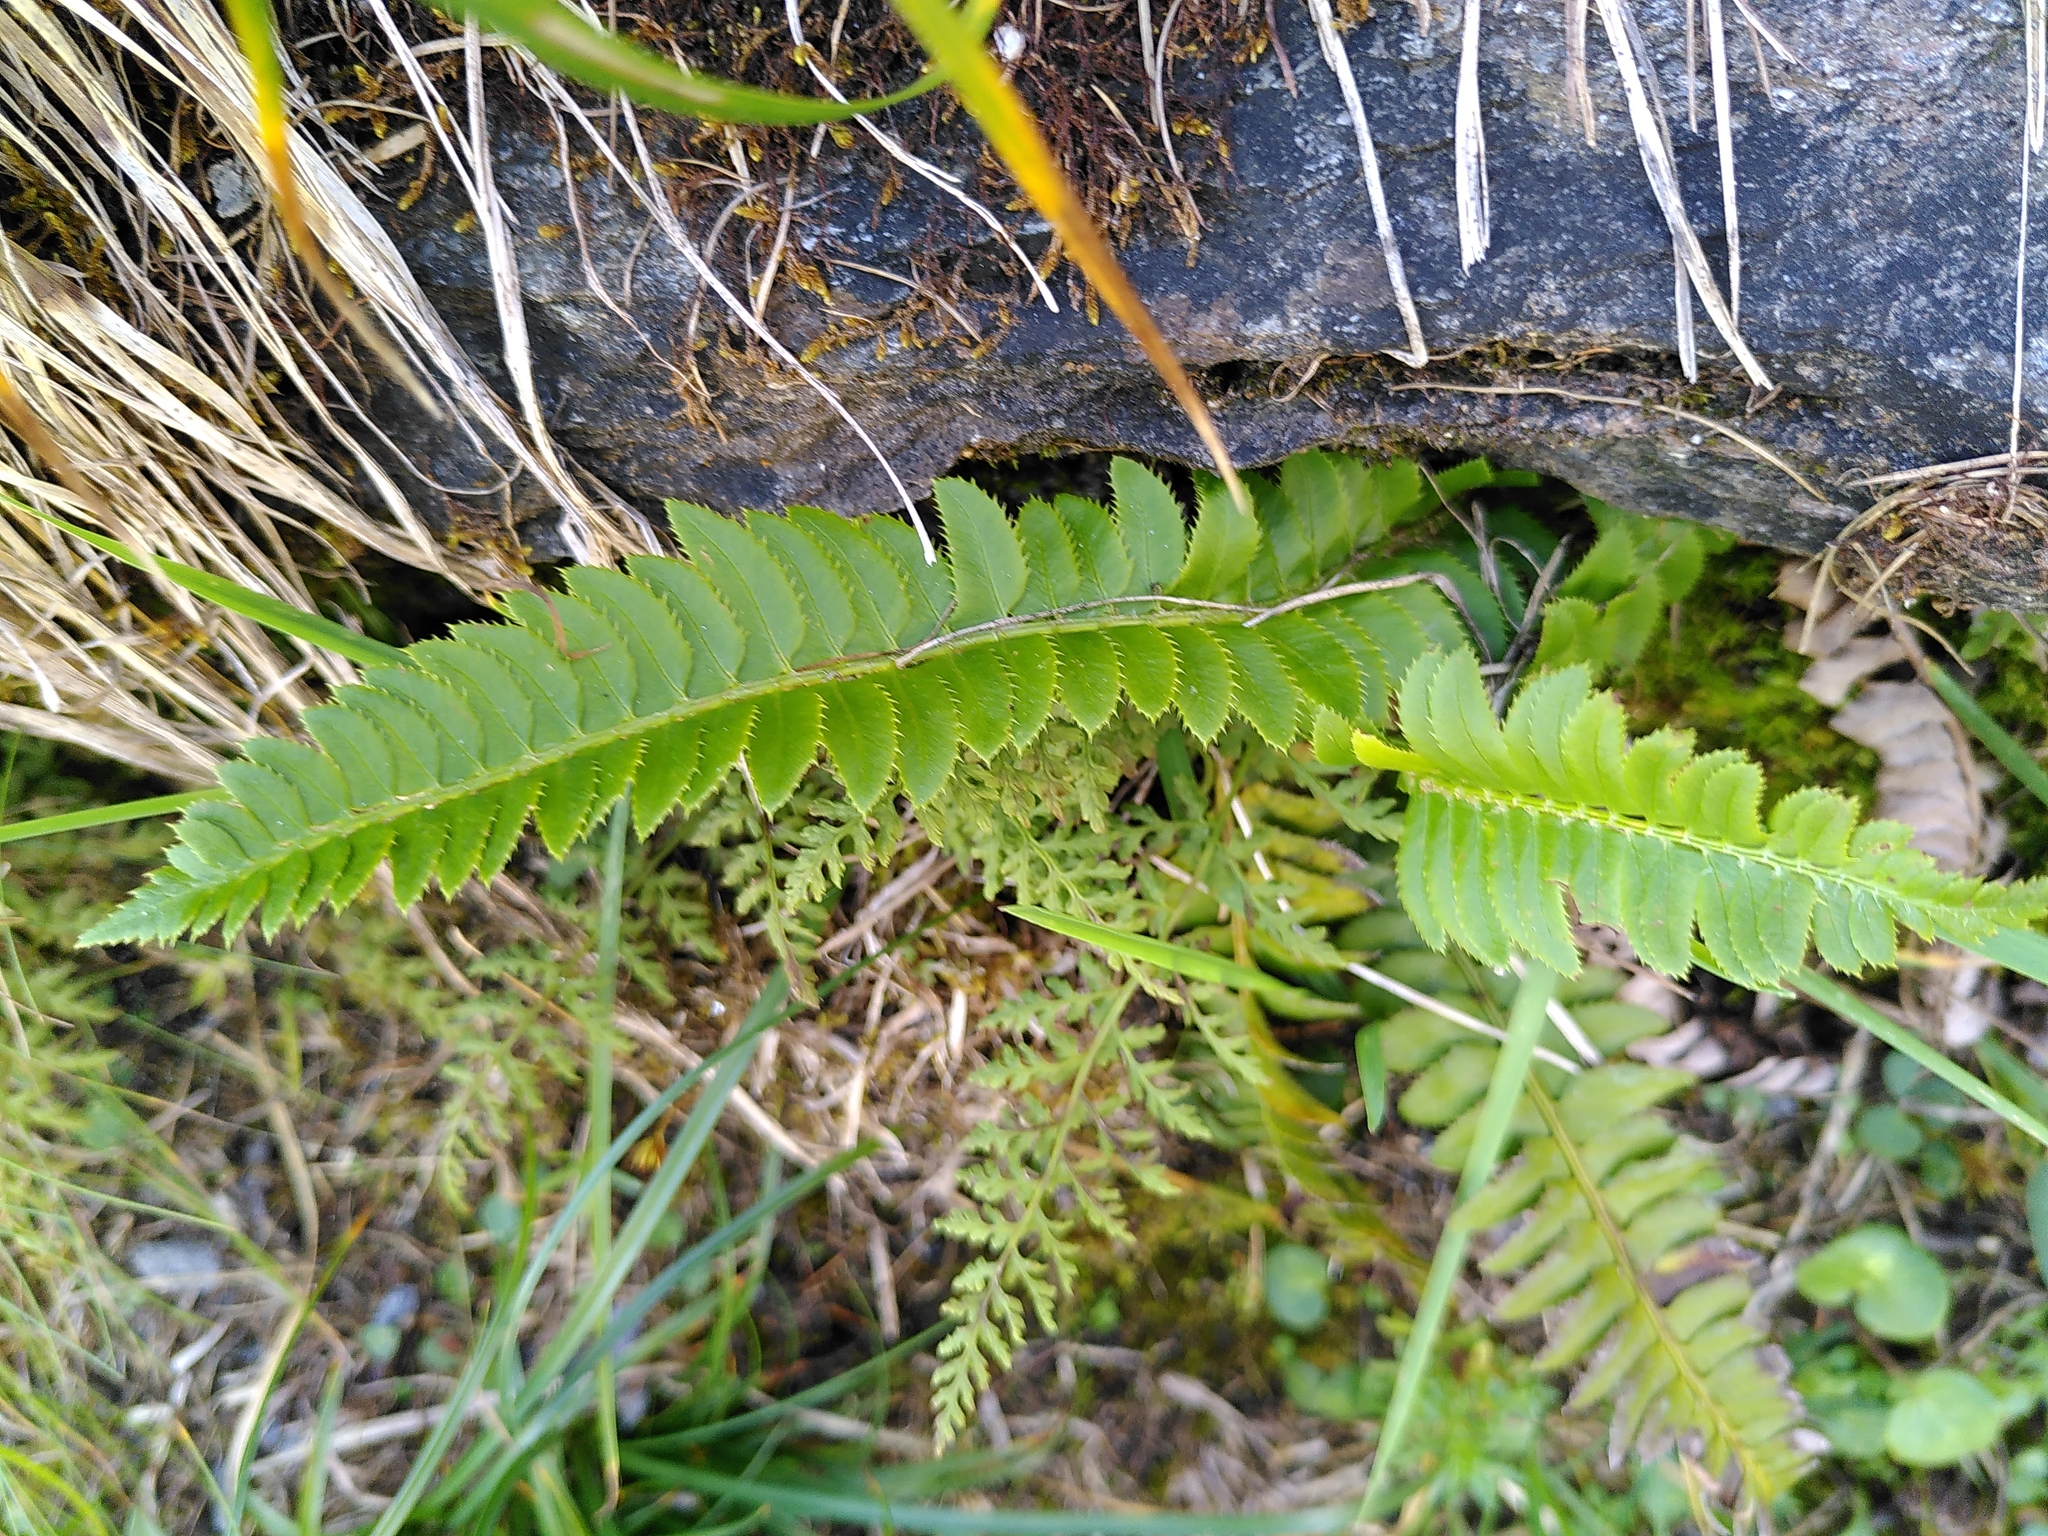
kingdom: Plantae
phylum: Tracheophyta
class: Polypodiopsida
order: Polypodiales
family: Dryopteridaceae
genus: Polystichum
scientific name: Polystichum lonchitis
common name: Holly fern
